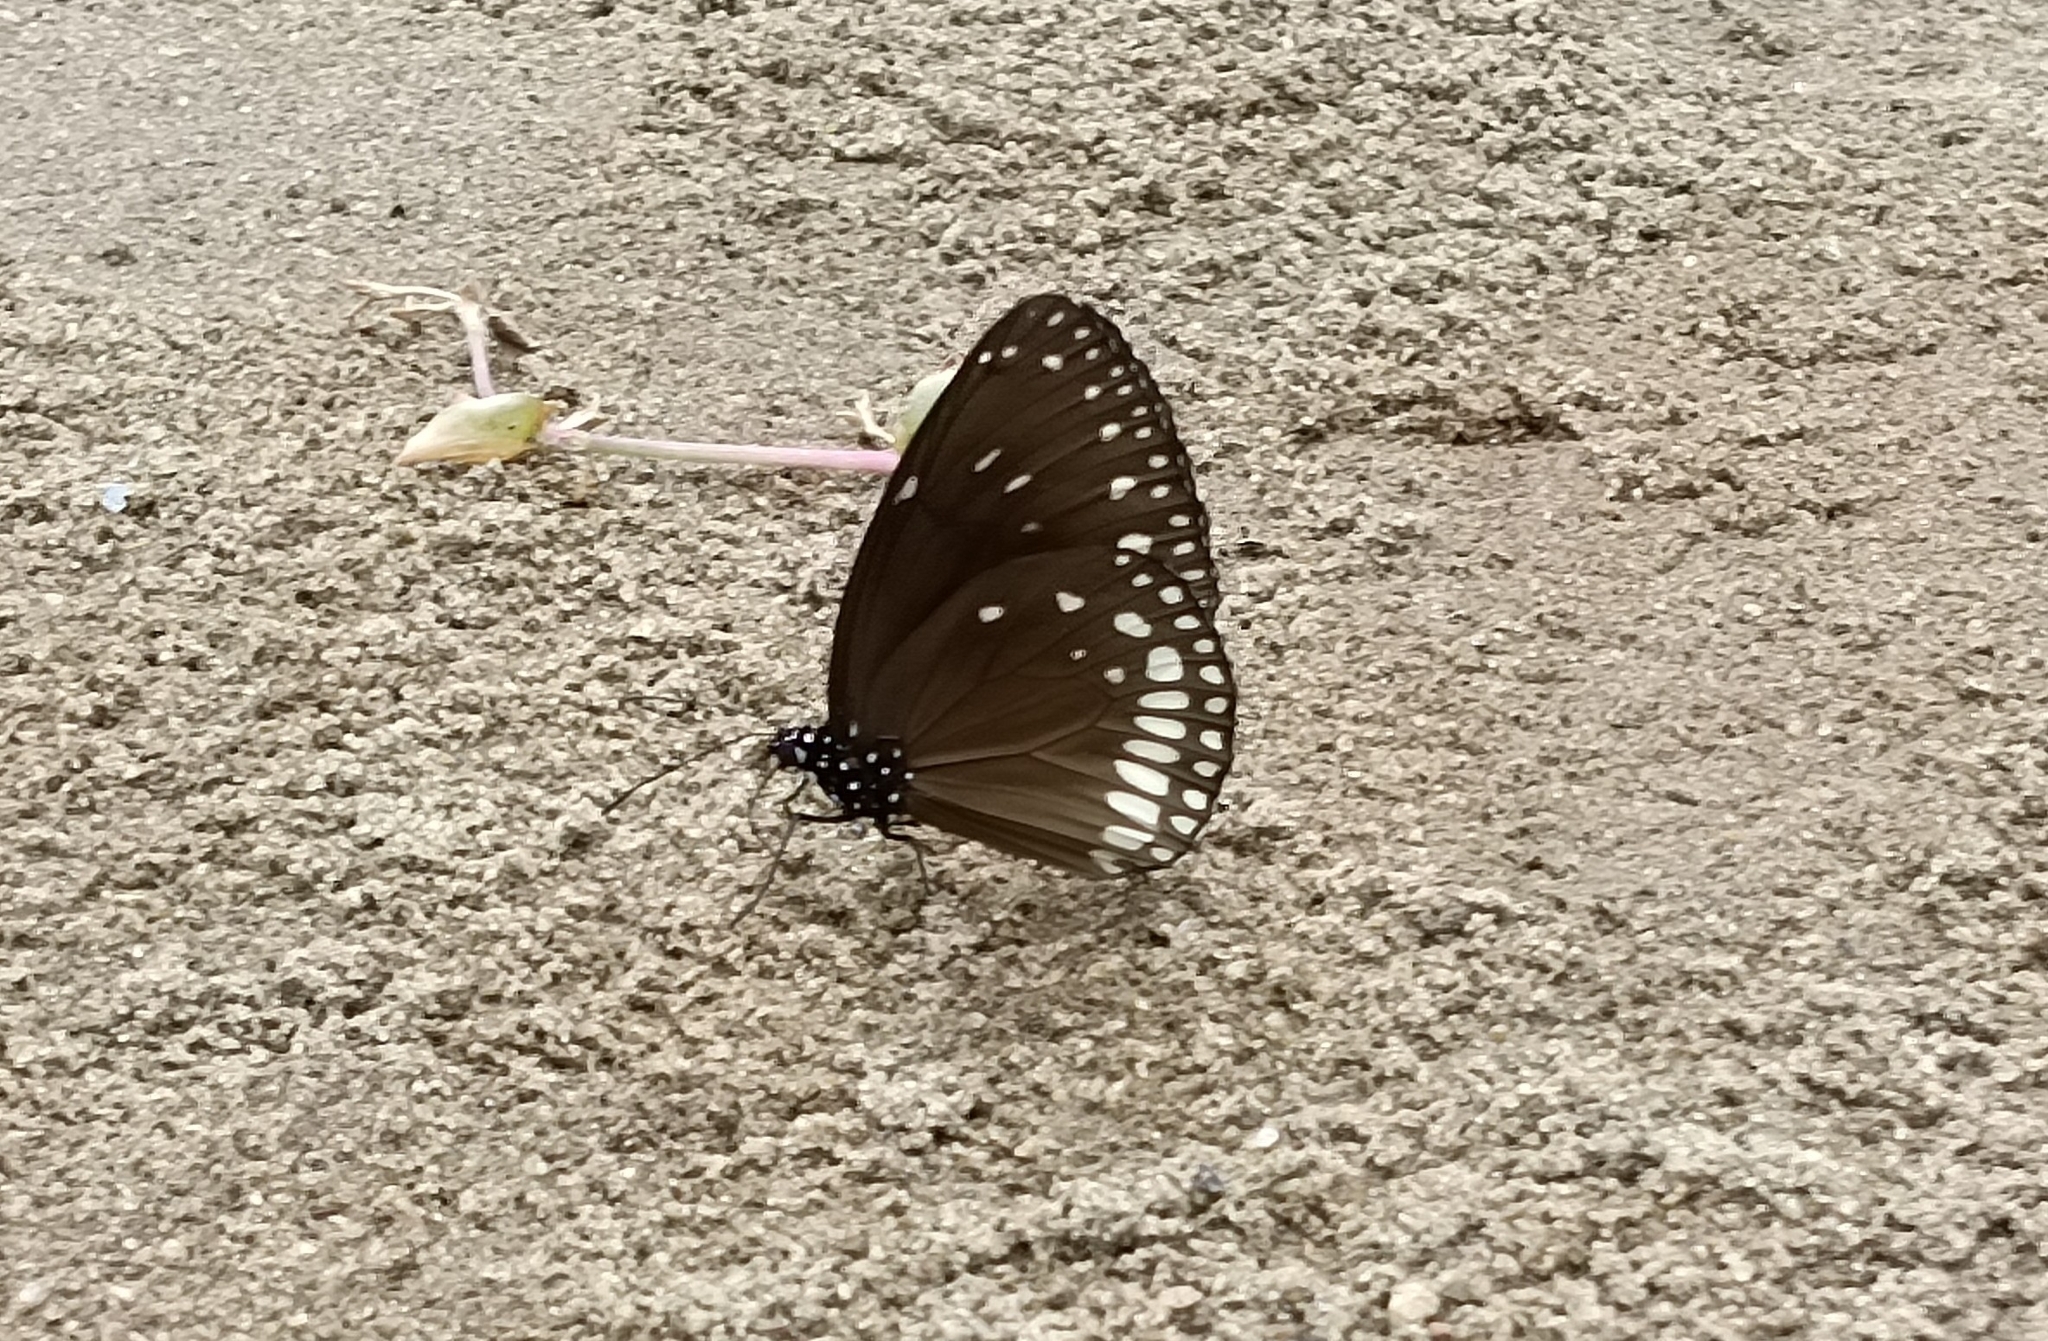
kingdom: Animalia
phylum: Arthropoda
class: Insecta
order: Lepidoptera
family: Nymphalidae
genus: Euploea
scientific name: Euploea klugii
